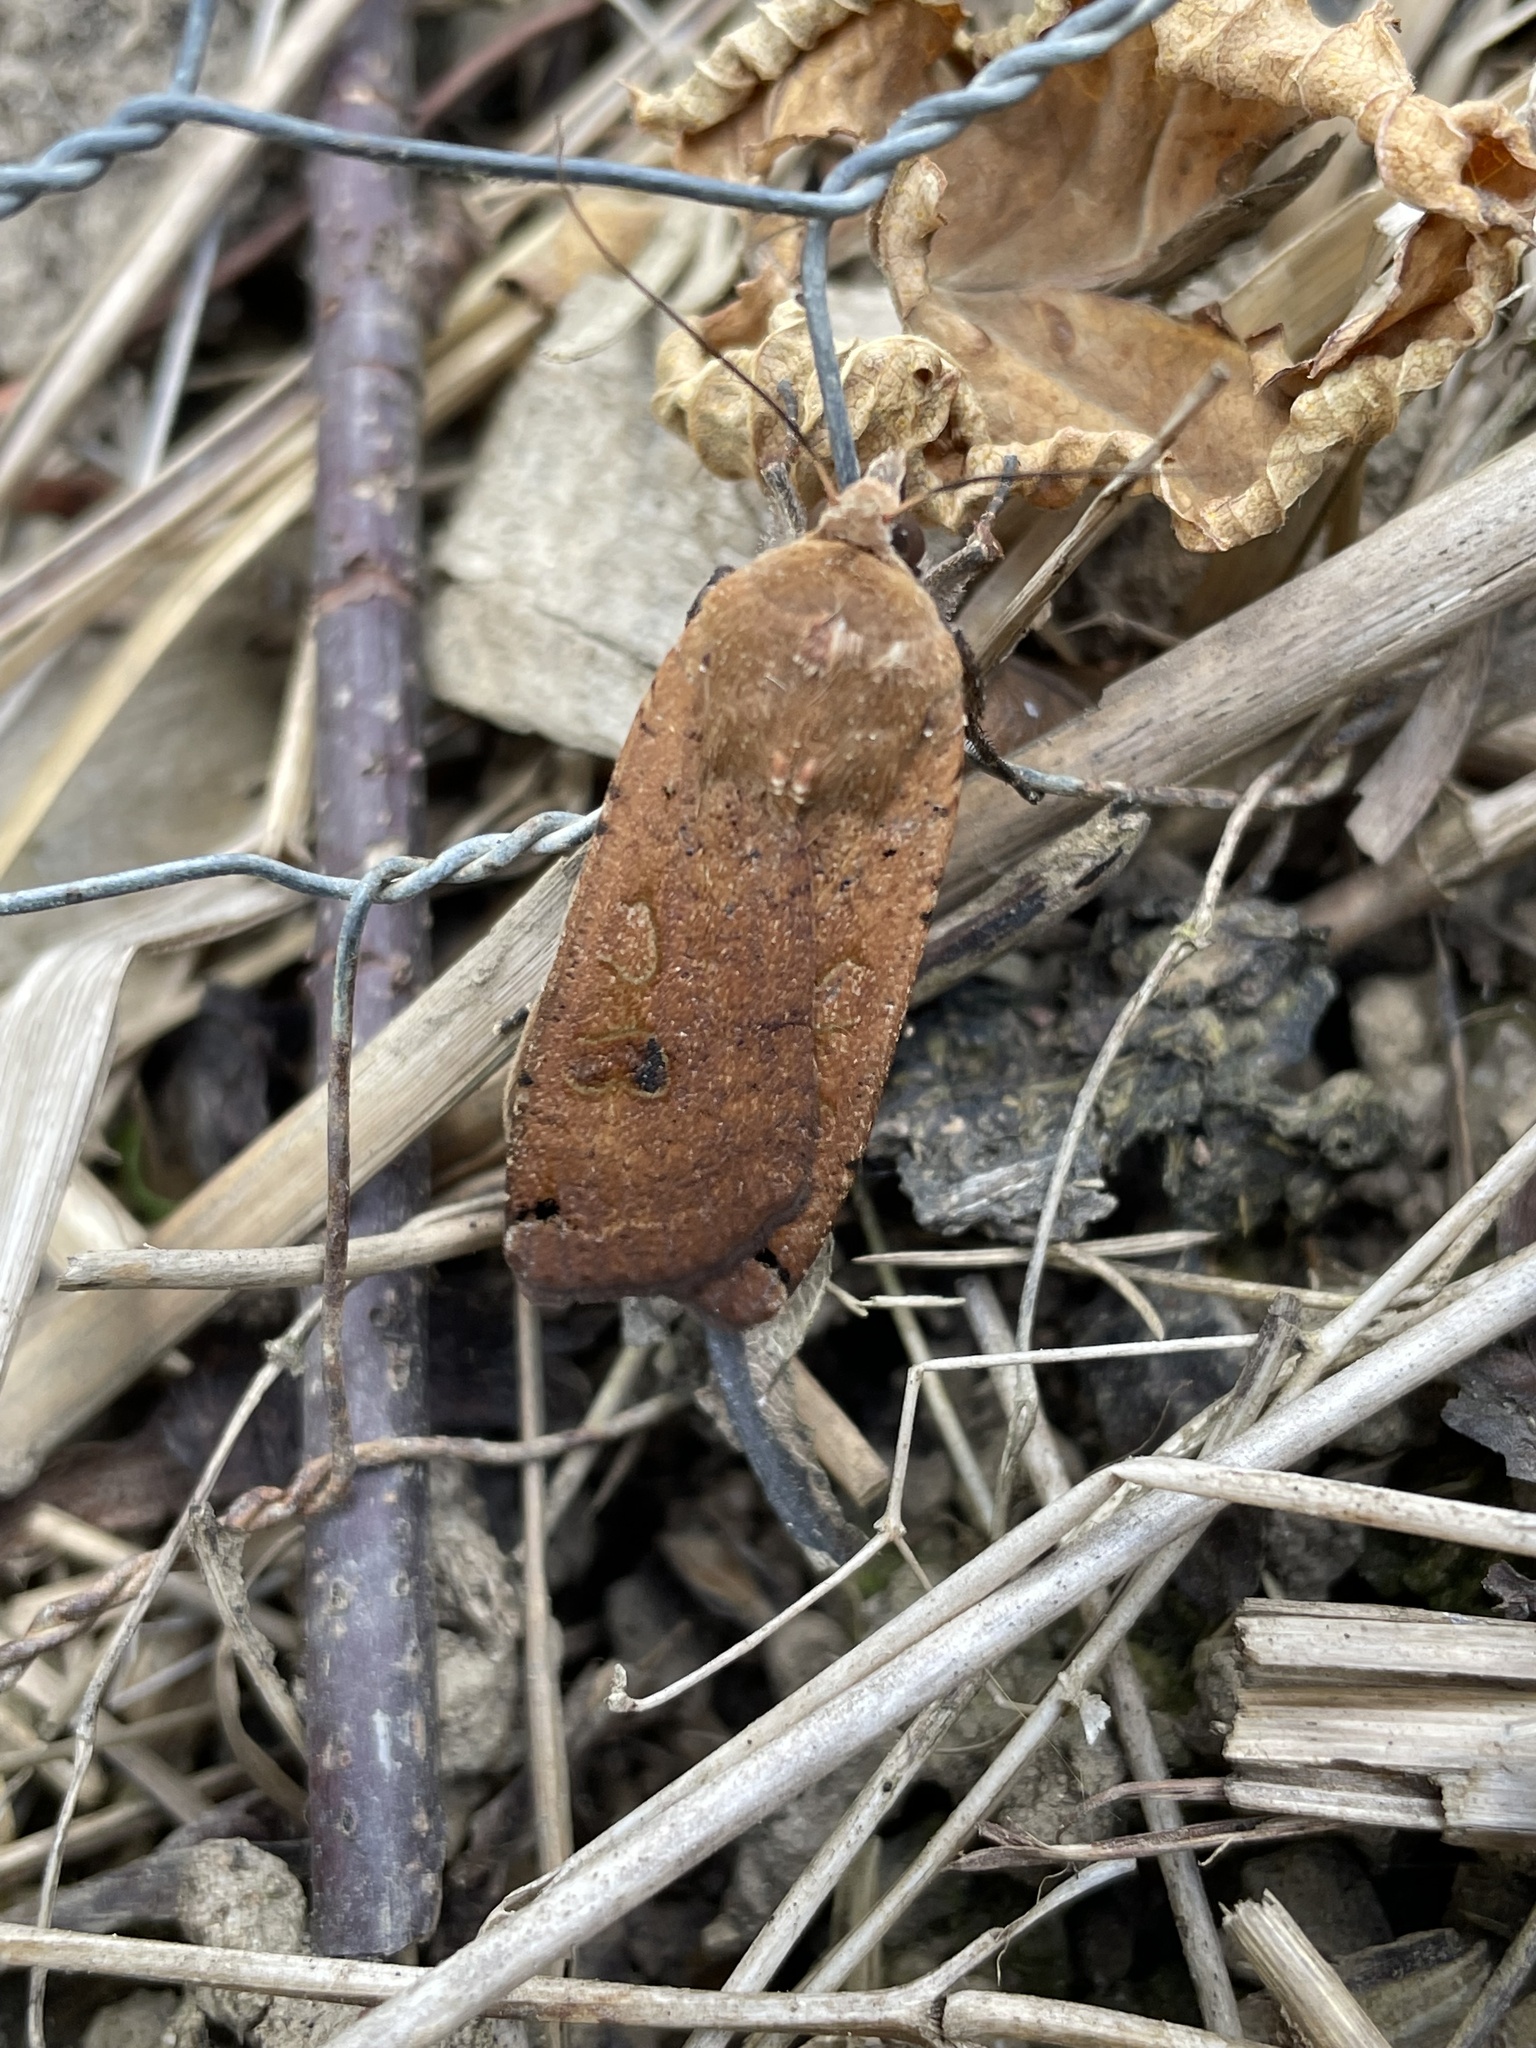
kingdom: Animalia
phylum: Arthropoda
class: Insecta
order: Lepidoptera
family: Noctuidae
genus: Noctua
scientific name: Noctua pronuba
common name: Large yellow underwing
